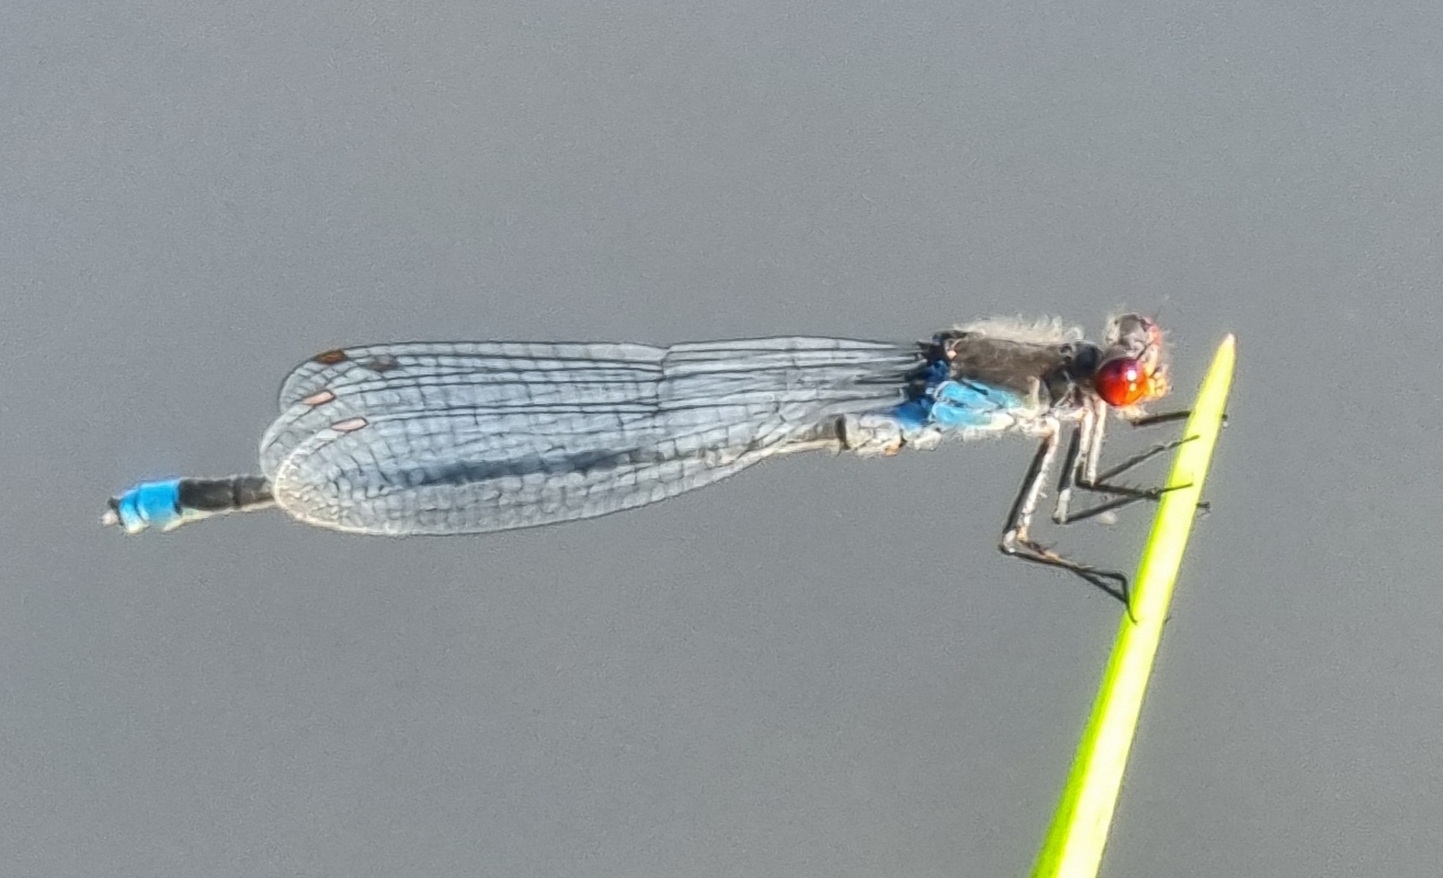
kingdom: Animalia
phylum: Arthropoda
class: Insecta
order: Odonata
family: Coenagrionidae
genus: Erythromma
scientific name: Erythromma najas
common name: Red-eyed damselfly
